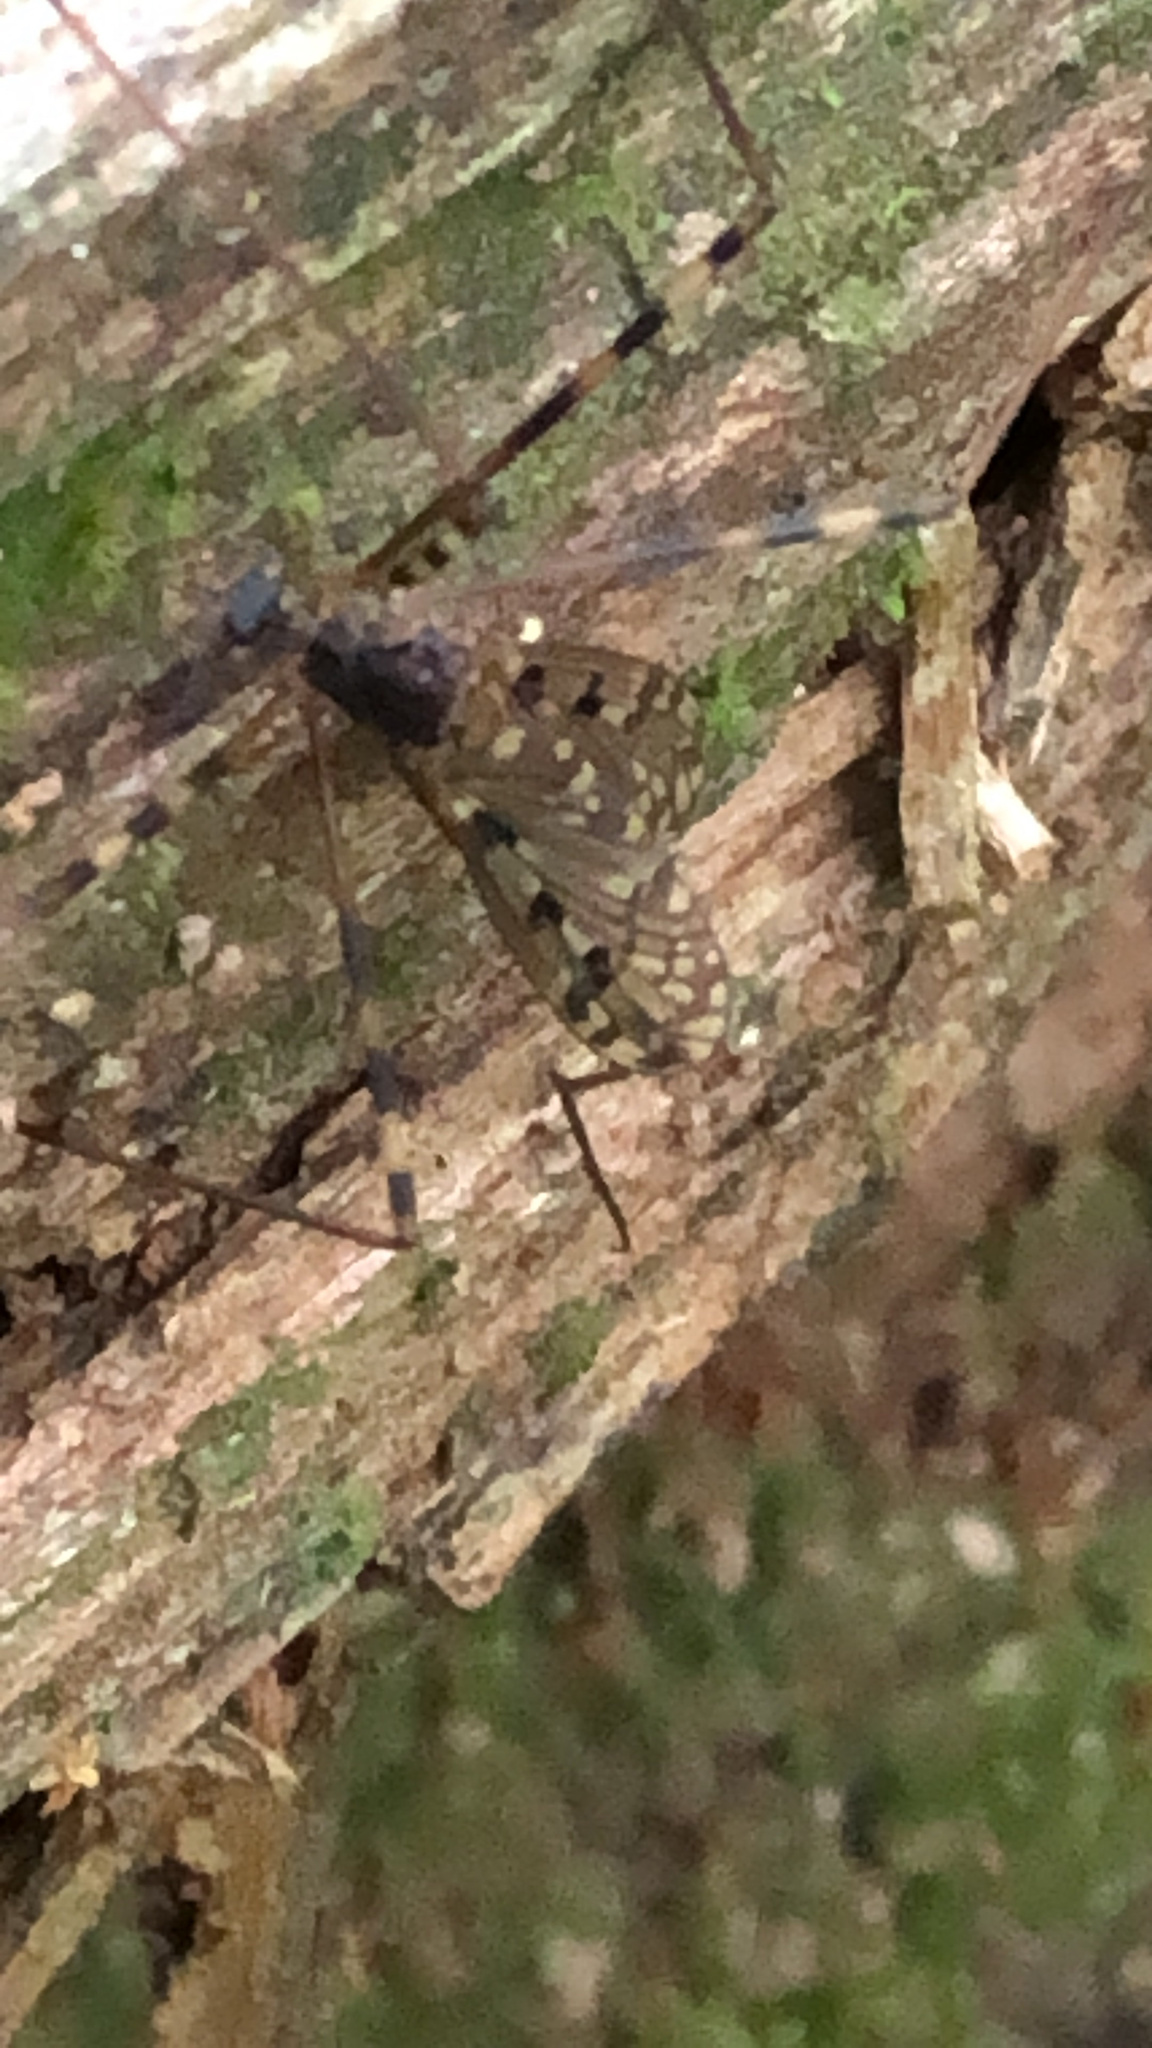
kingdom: Animalia
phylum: Arthropoda
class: Insecta
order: Diptera
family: Limoniidae
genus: Limonia
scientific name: Limonia cinctipes
